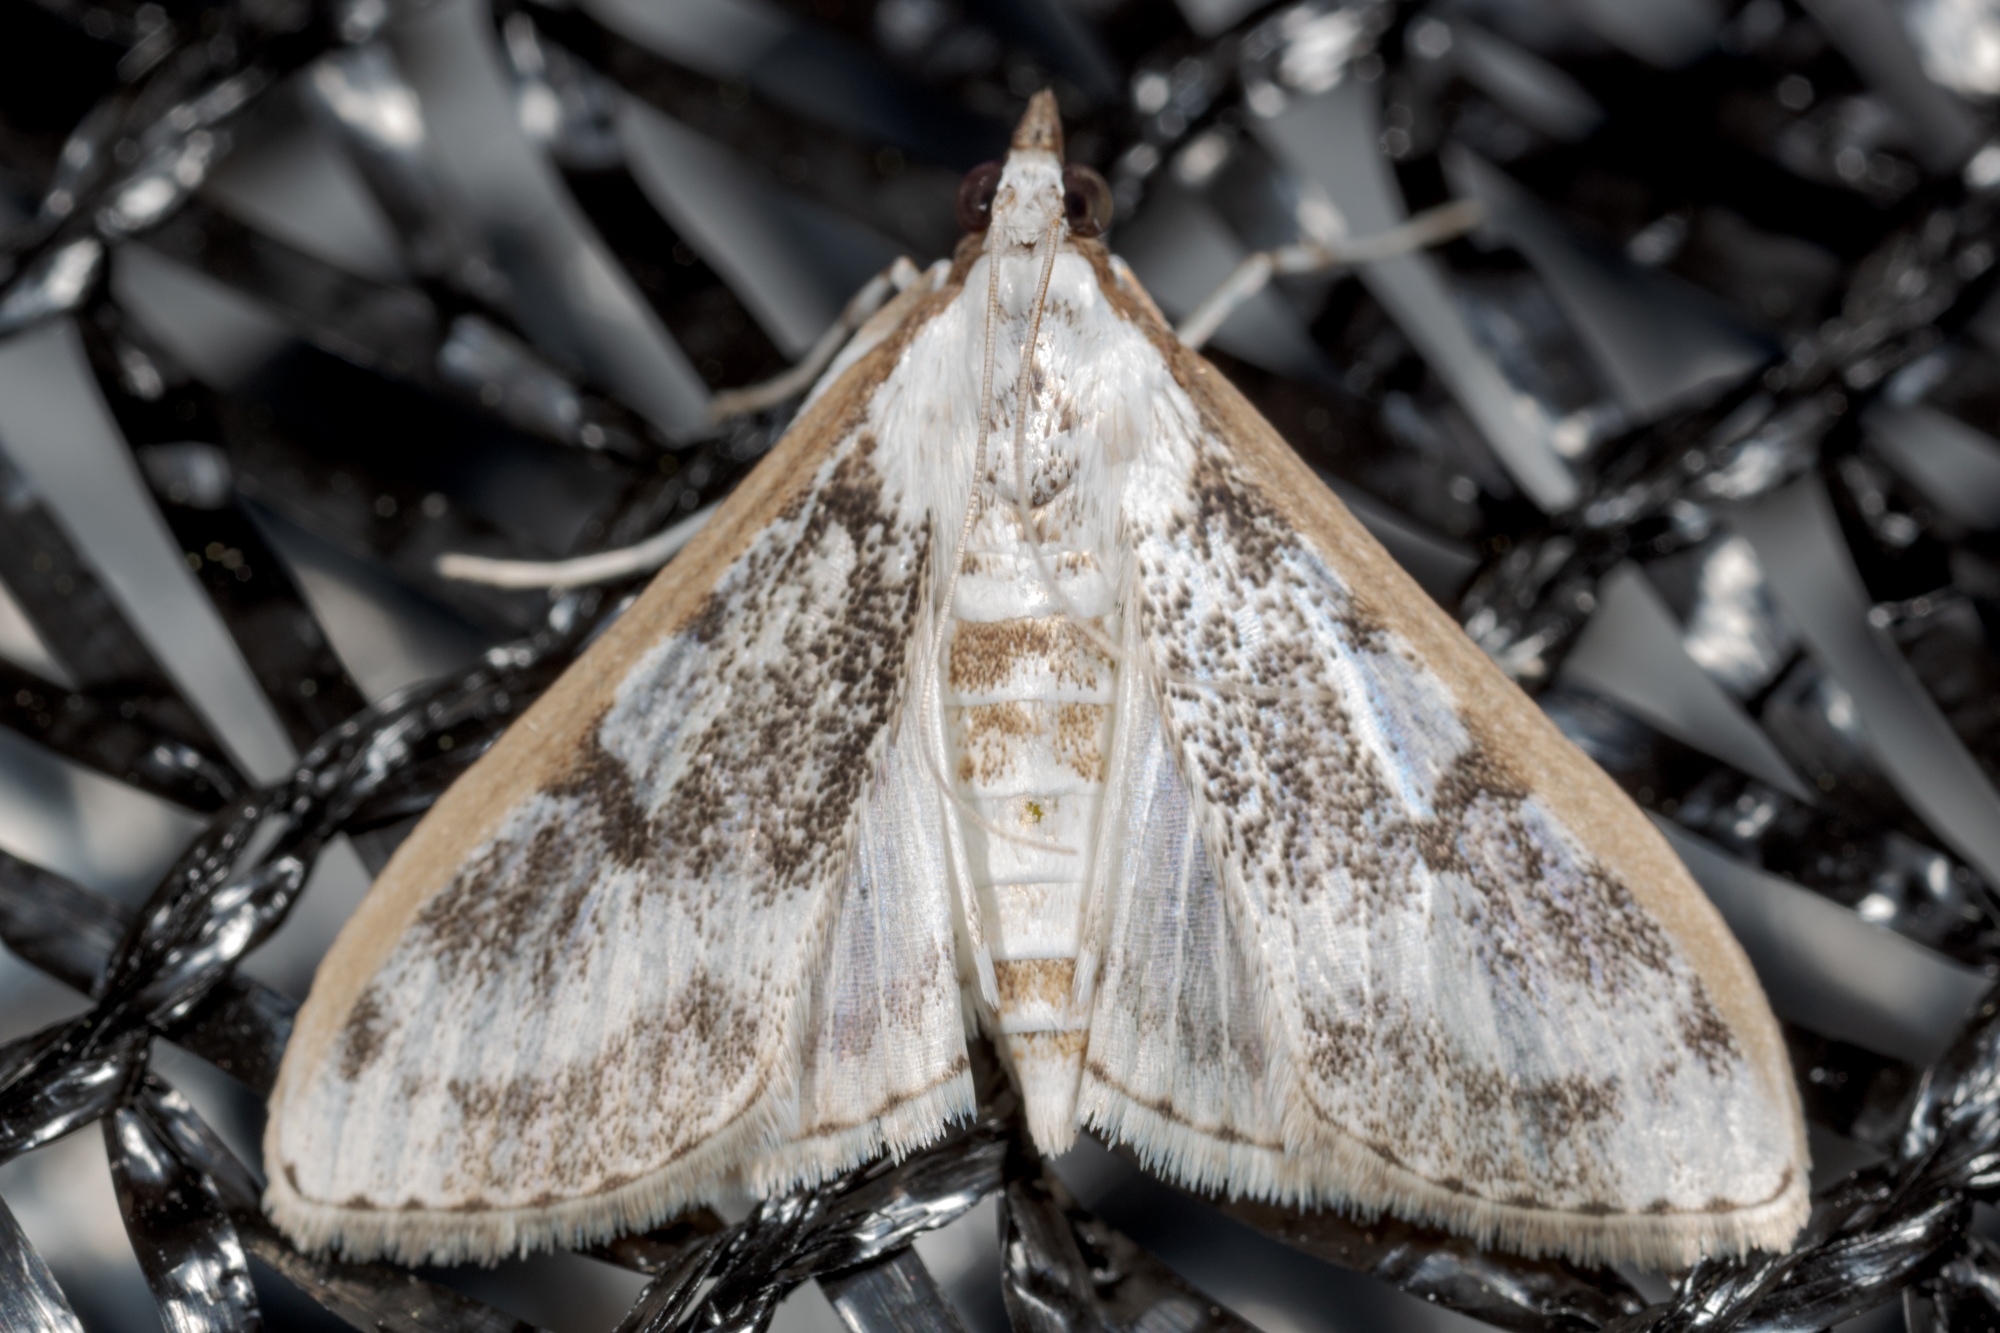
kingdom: Animalia
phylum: Arthropoda
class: Insecta
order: Lepidoptera
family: Crambidae
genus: Palpita
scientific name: Palpita gracilalis
